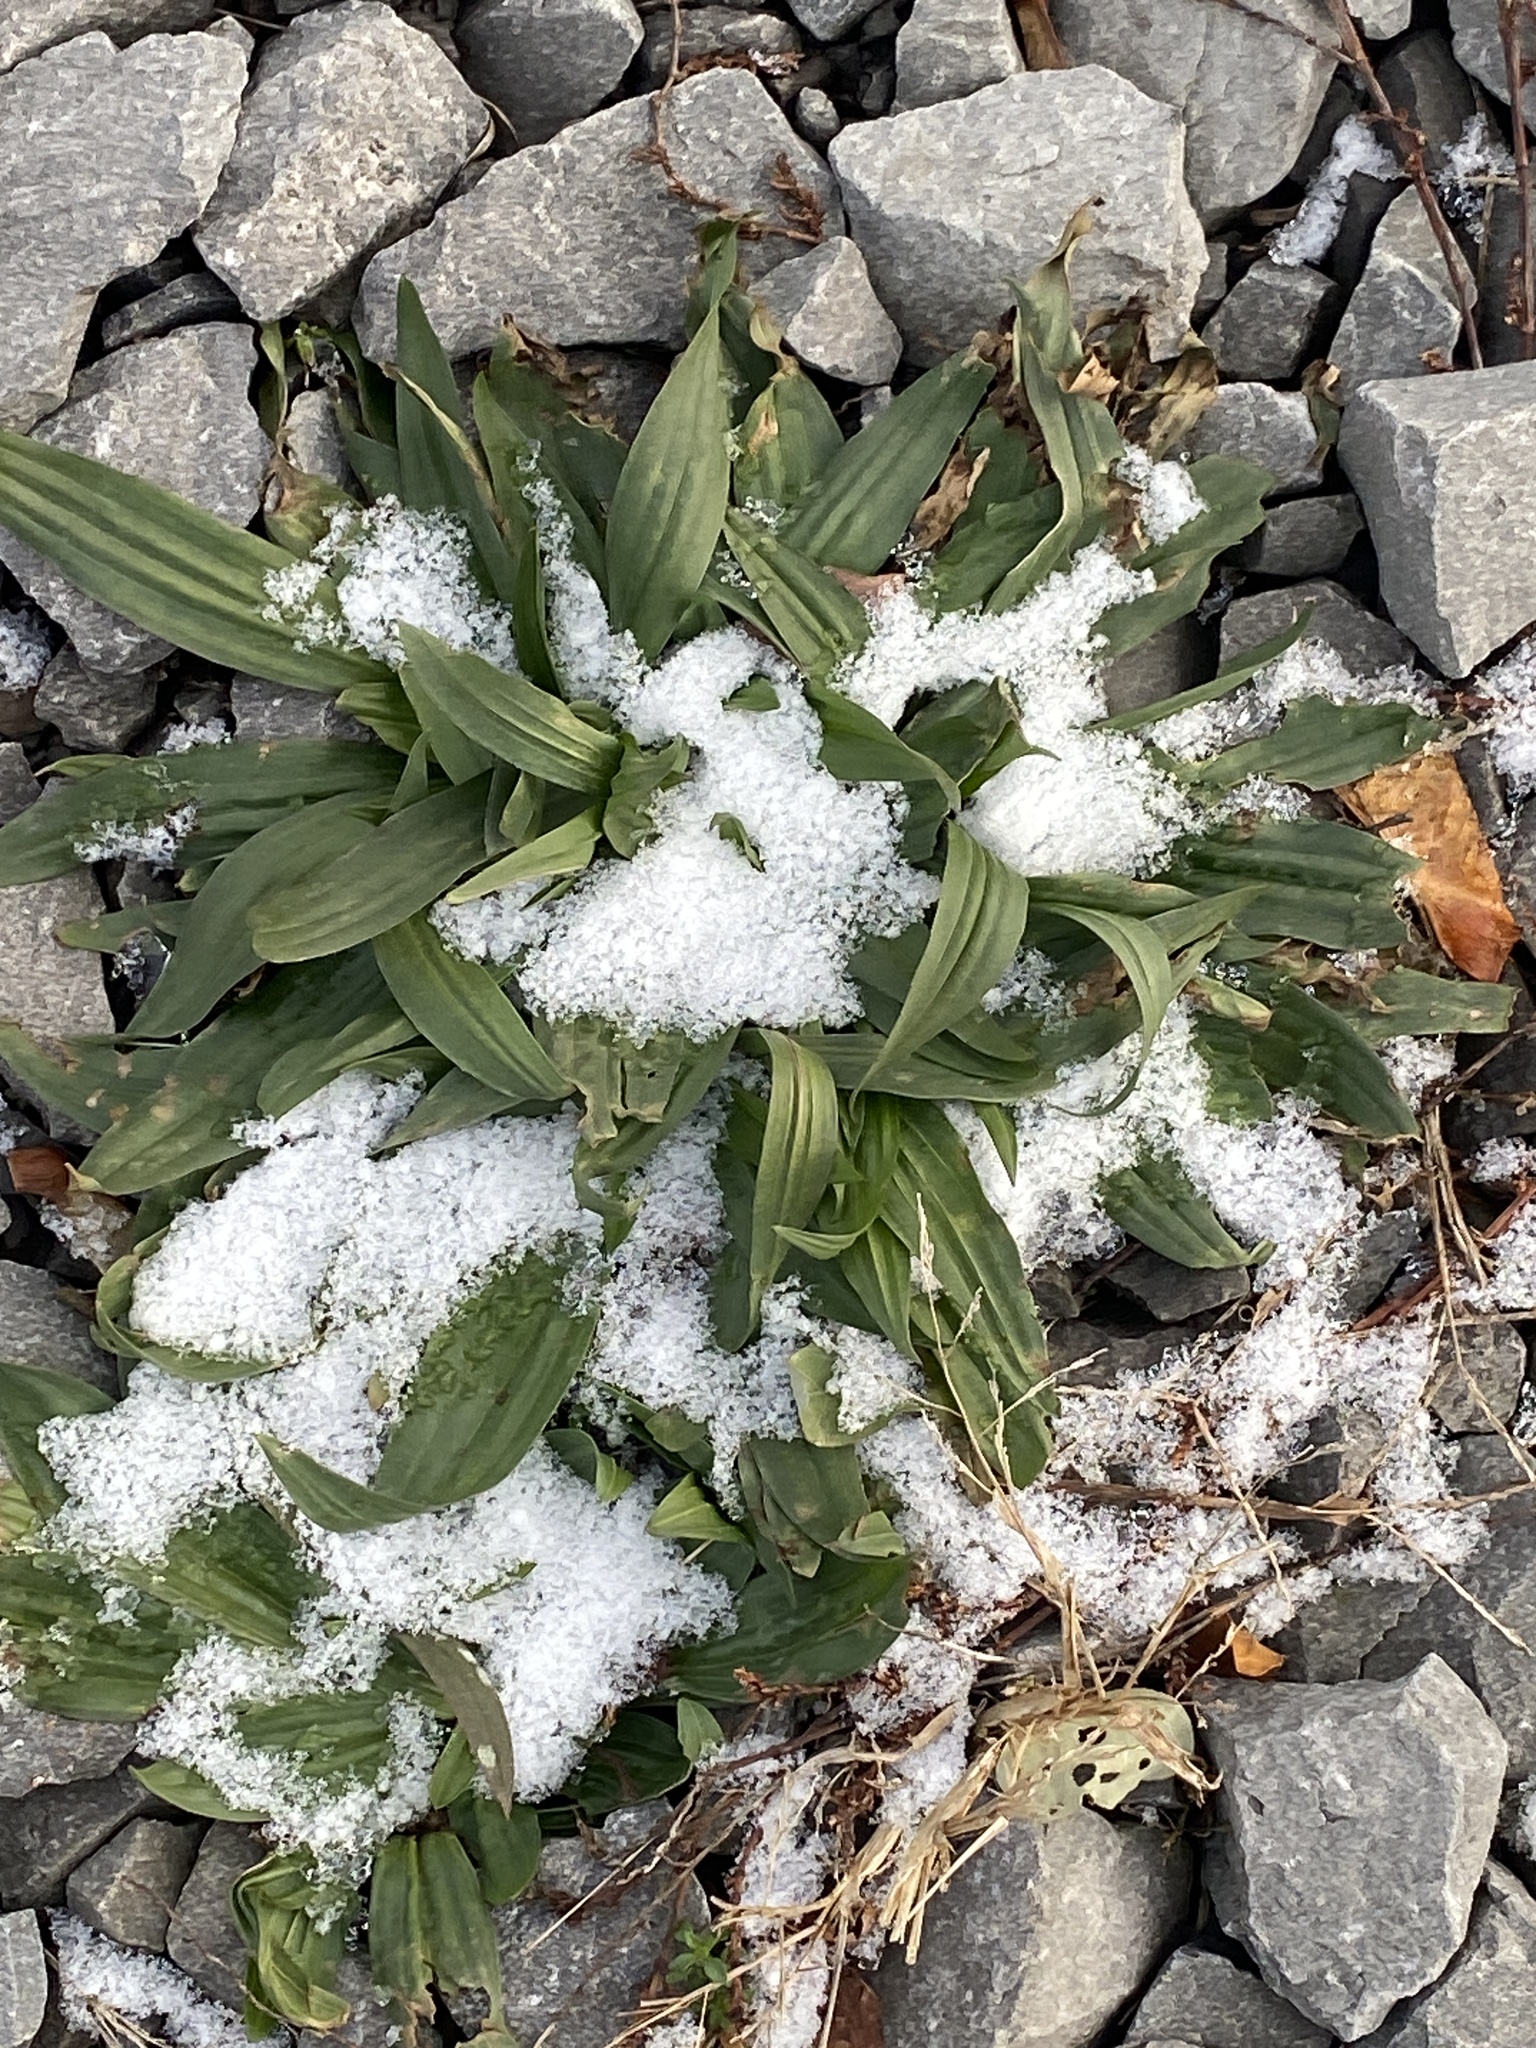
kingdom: Plantae
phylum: Tracheophyta
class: Magnoliopsida
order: Lamiales
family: Plantaginaceae
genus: Plantago
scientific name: Plantago lanceolata
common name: Ribwort plantain
